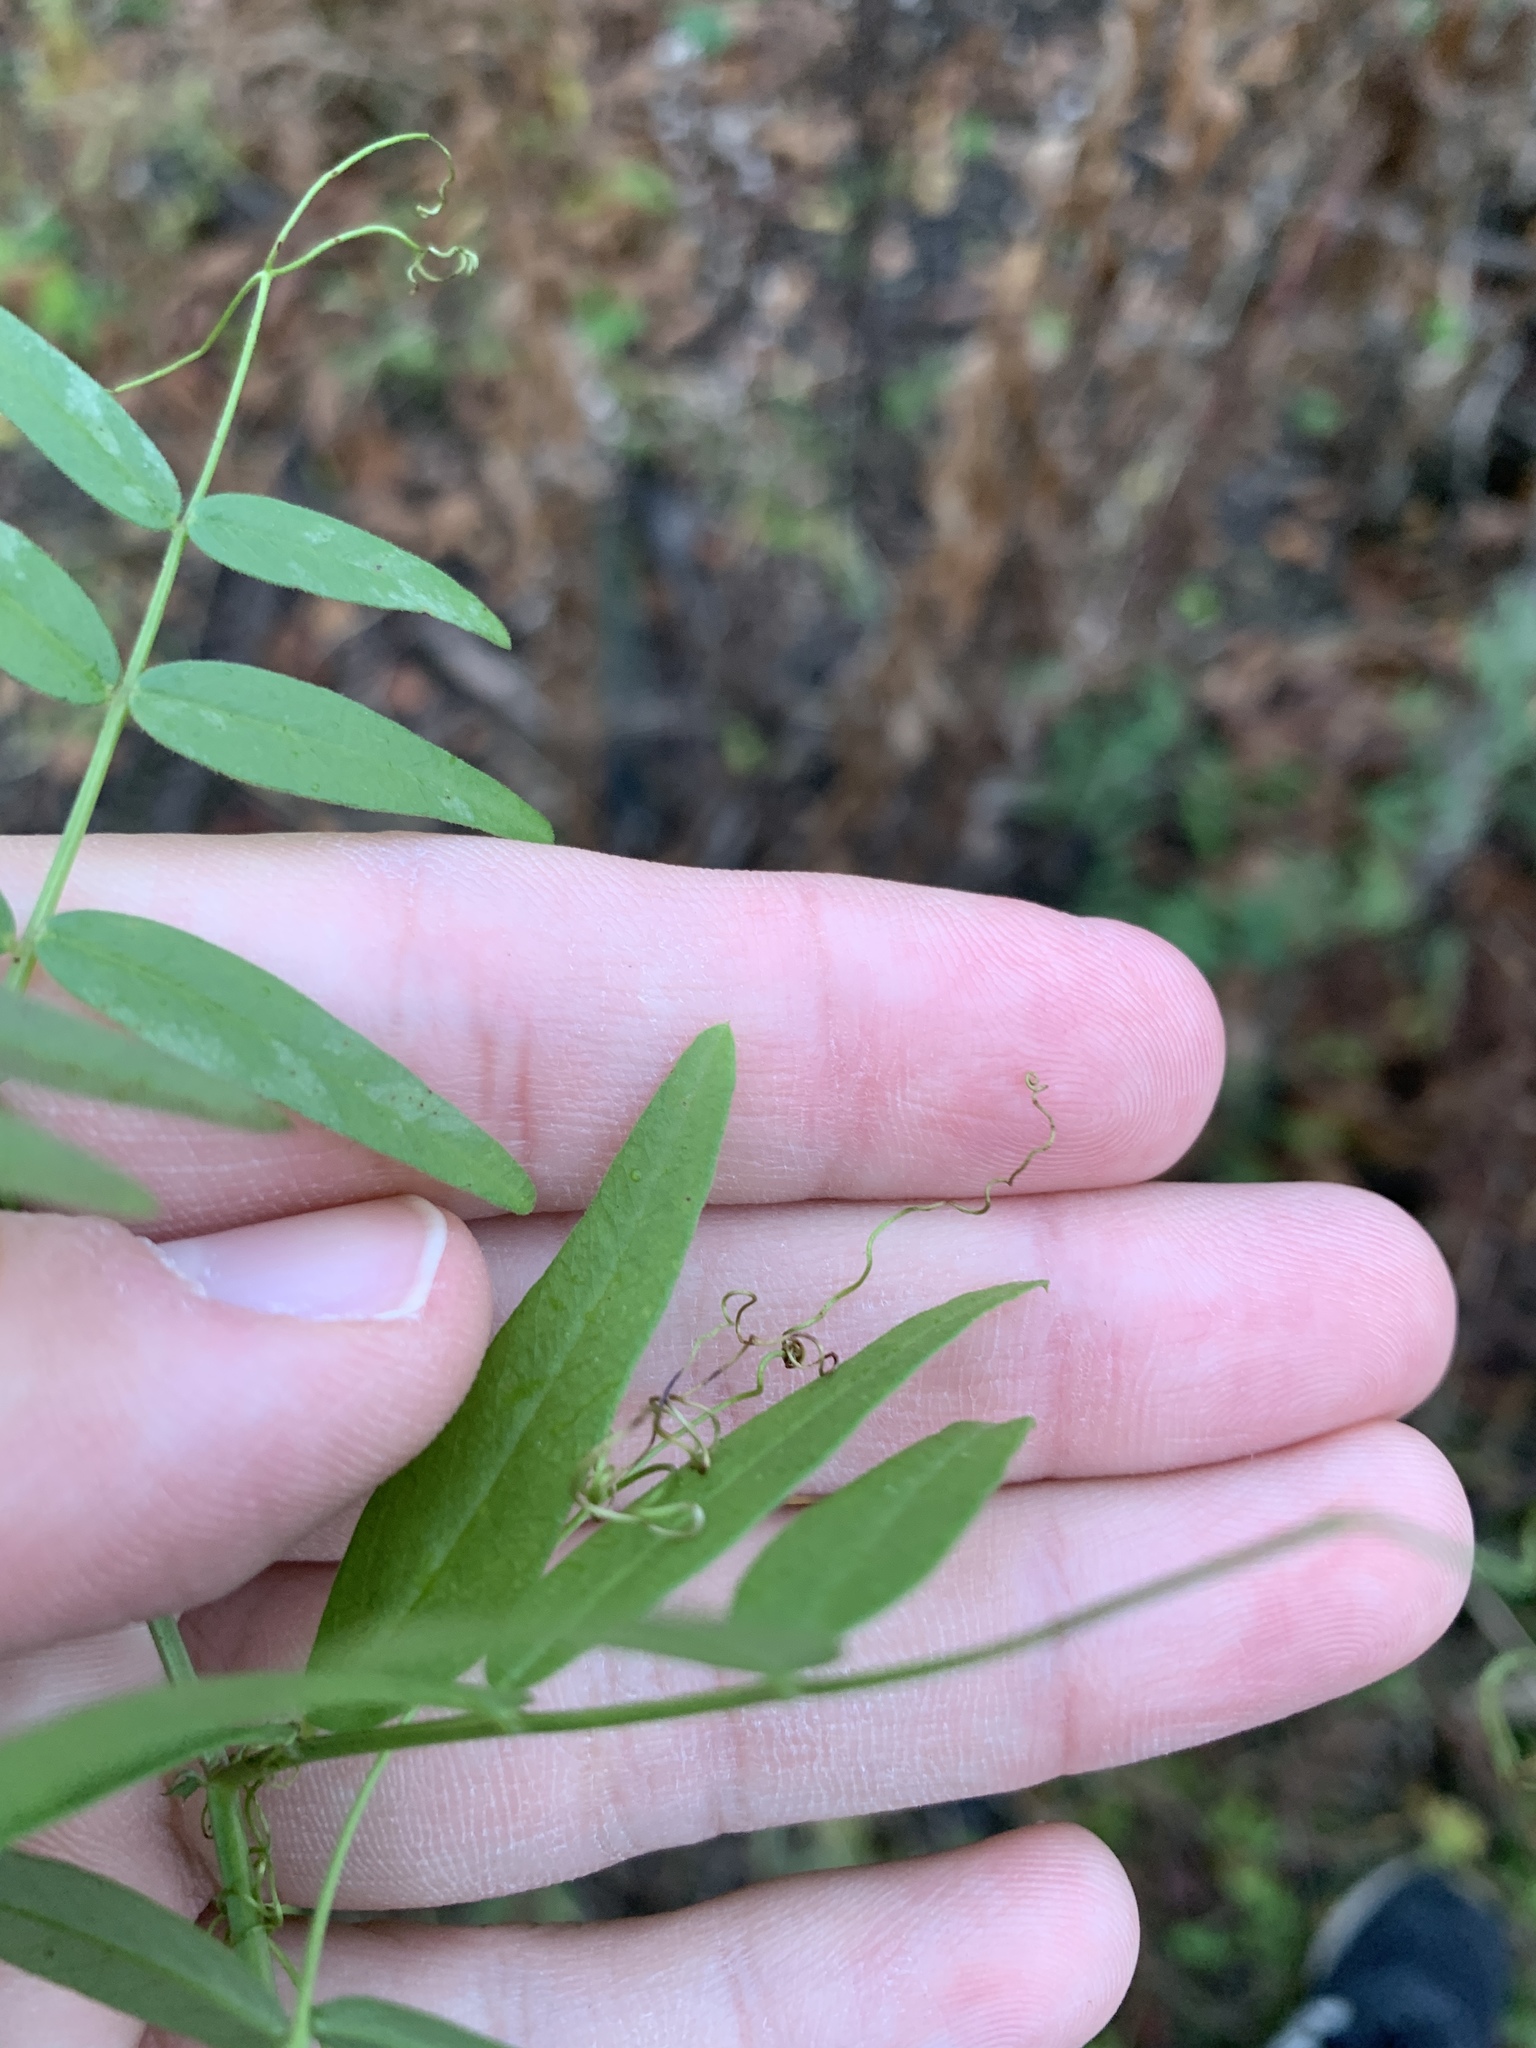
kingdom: Plantae
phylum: Tracheophyta
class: Magnoliopsida
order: Fabales
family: Fabaceae
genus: Vicia
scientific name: Vicia sepium
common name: Bush vetch
